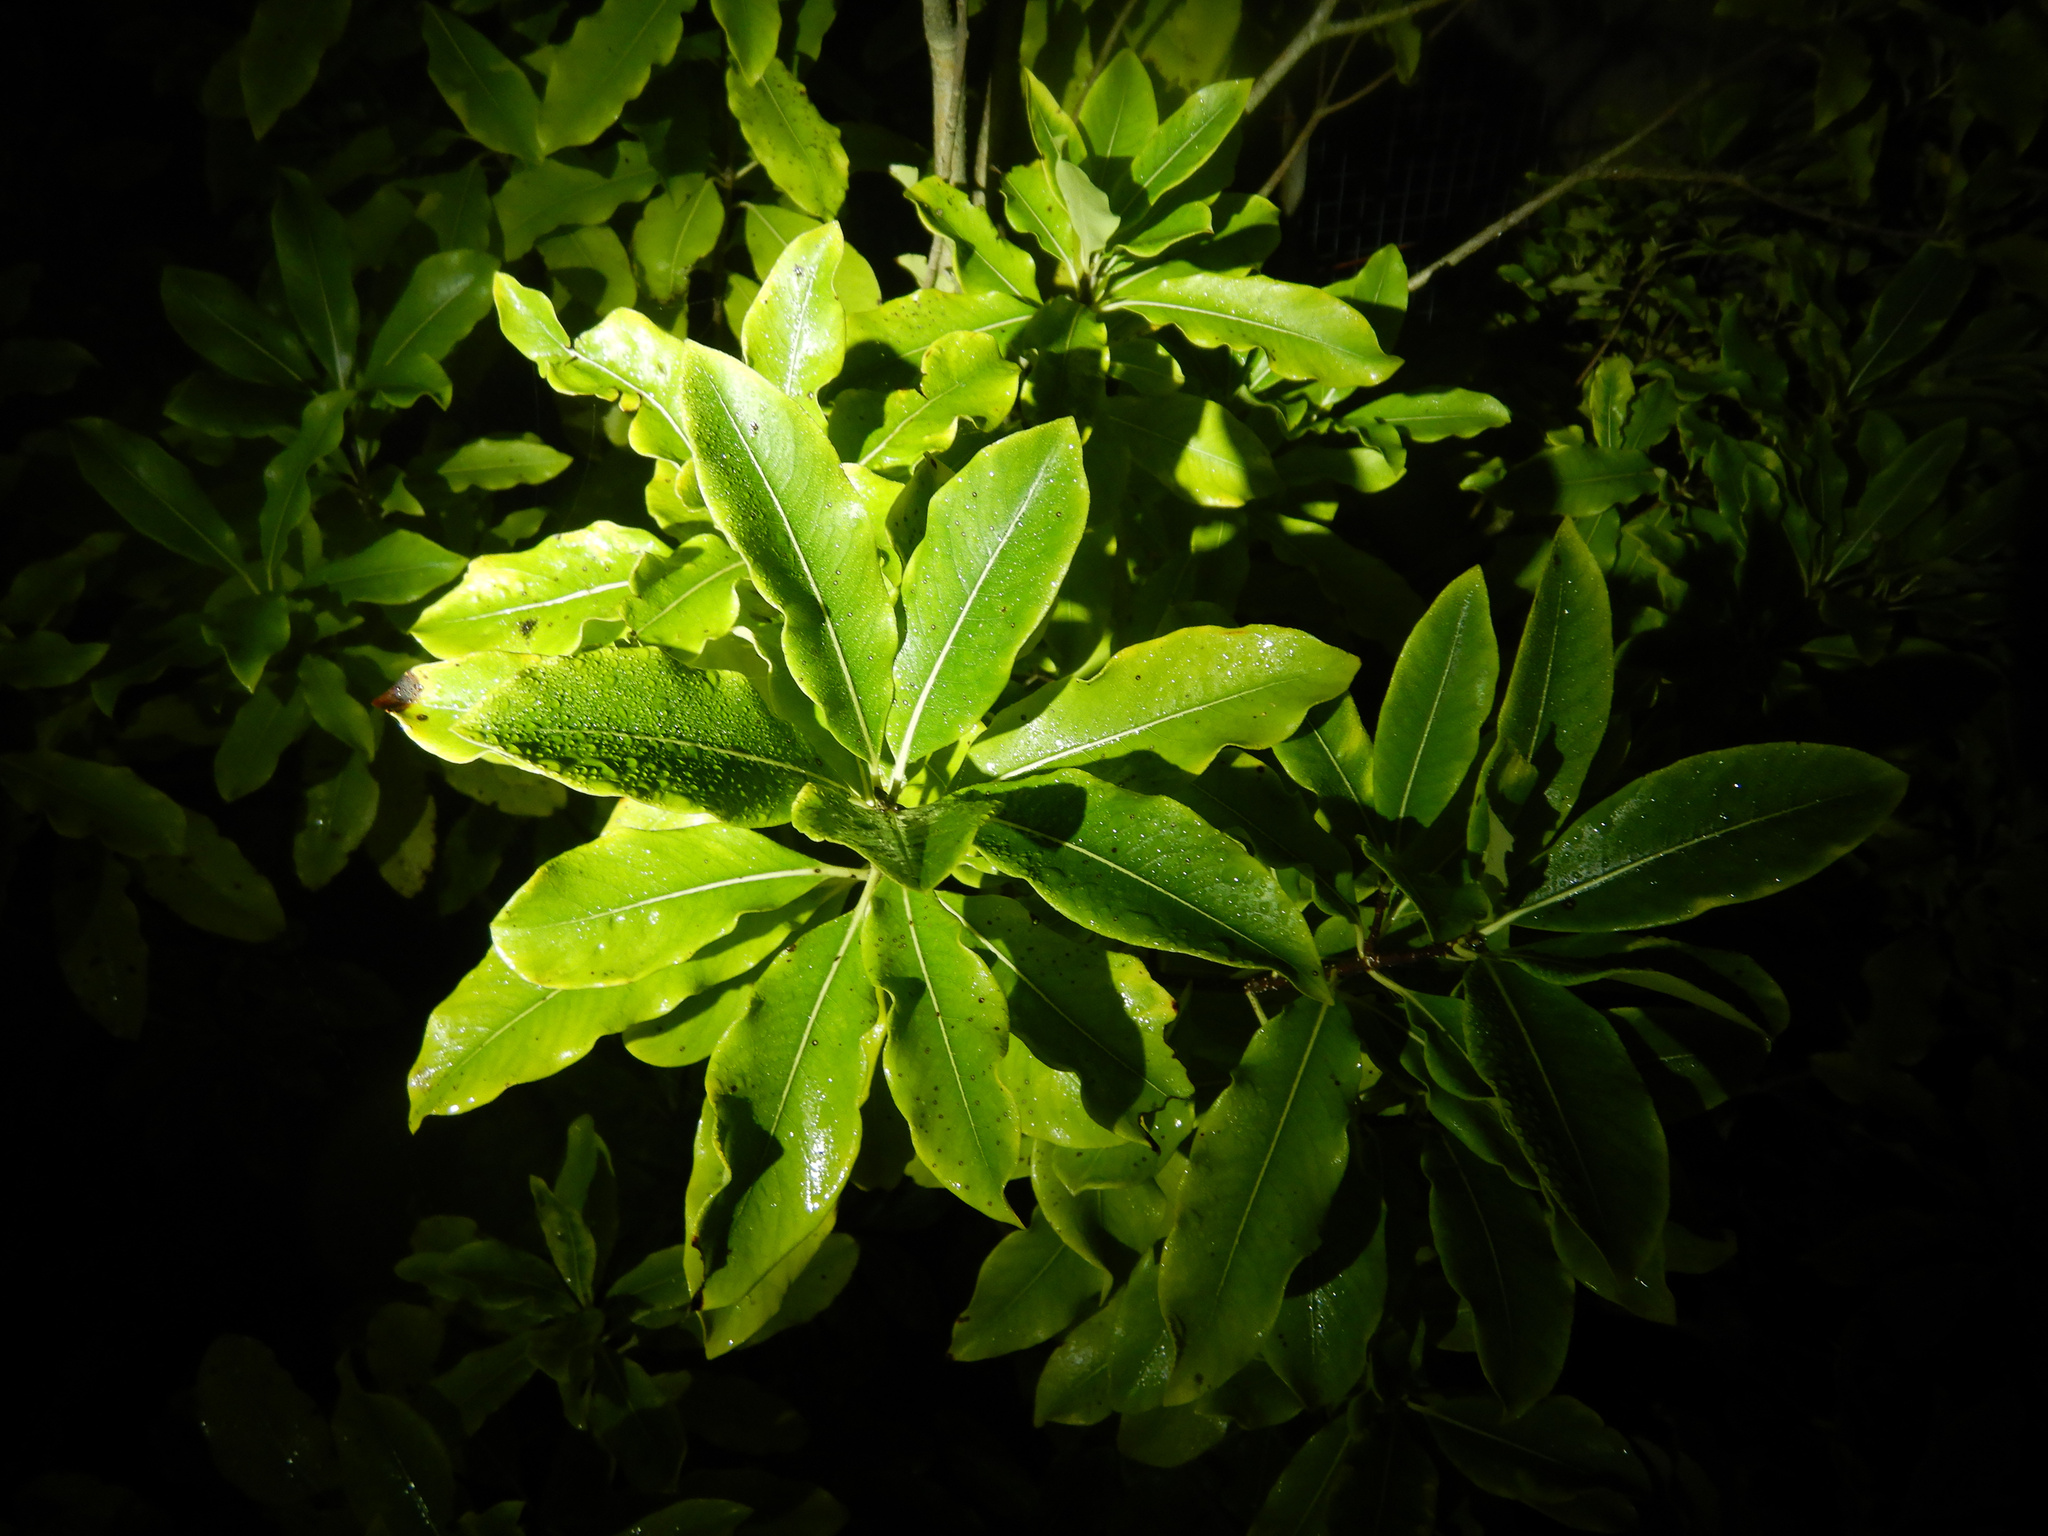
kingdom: Plantae
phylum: Tracheophyta
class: Magnoliopsida
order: Apiales
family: Pittosporaceae
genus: Pittosporum
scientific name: Pittosporum eugenioides
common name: Lemonwood
